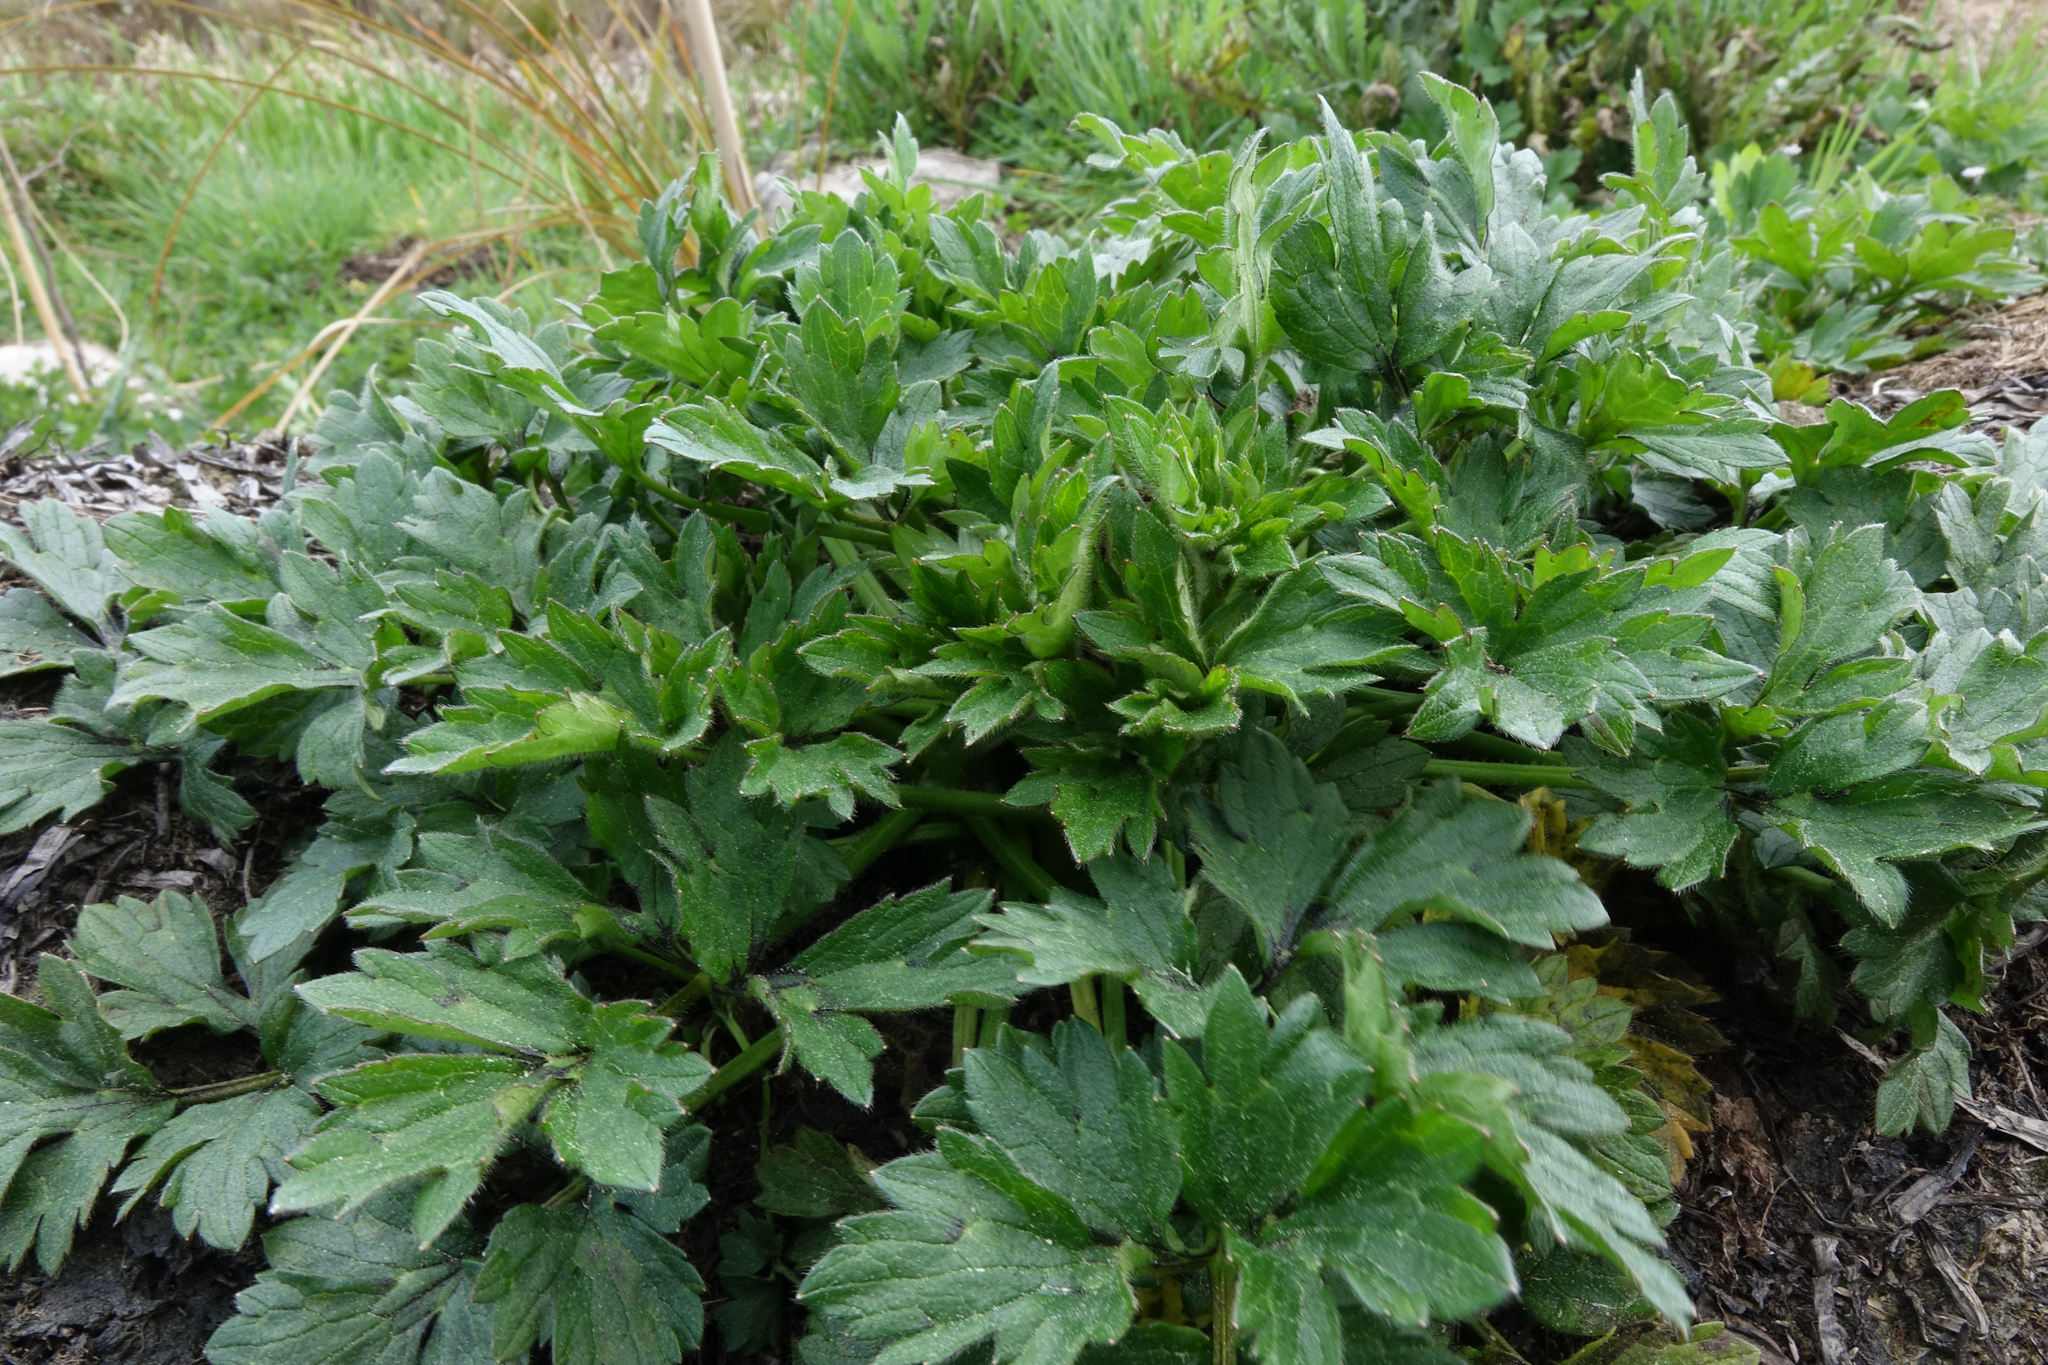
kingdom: Plantae
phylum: Tracheophyta
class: Magnoliopsida
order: Ranunculales
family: Ranunculaceae
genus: Ranunculus
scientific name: Ranunculus repens
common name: Creeping buttercup
